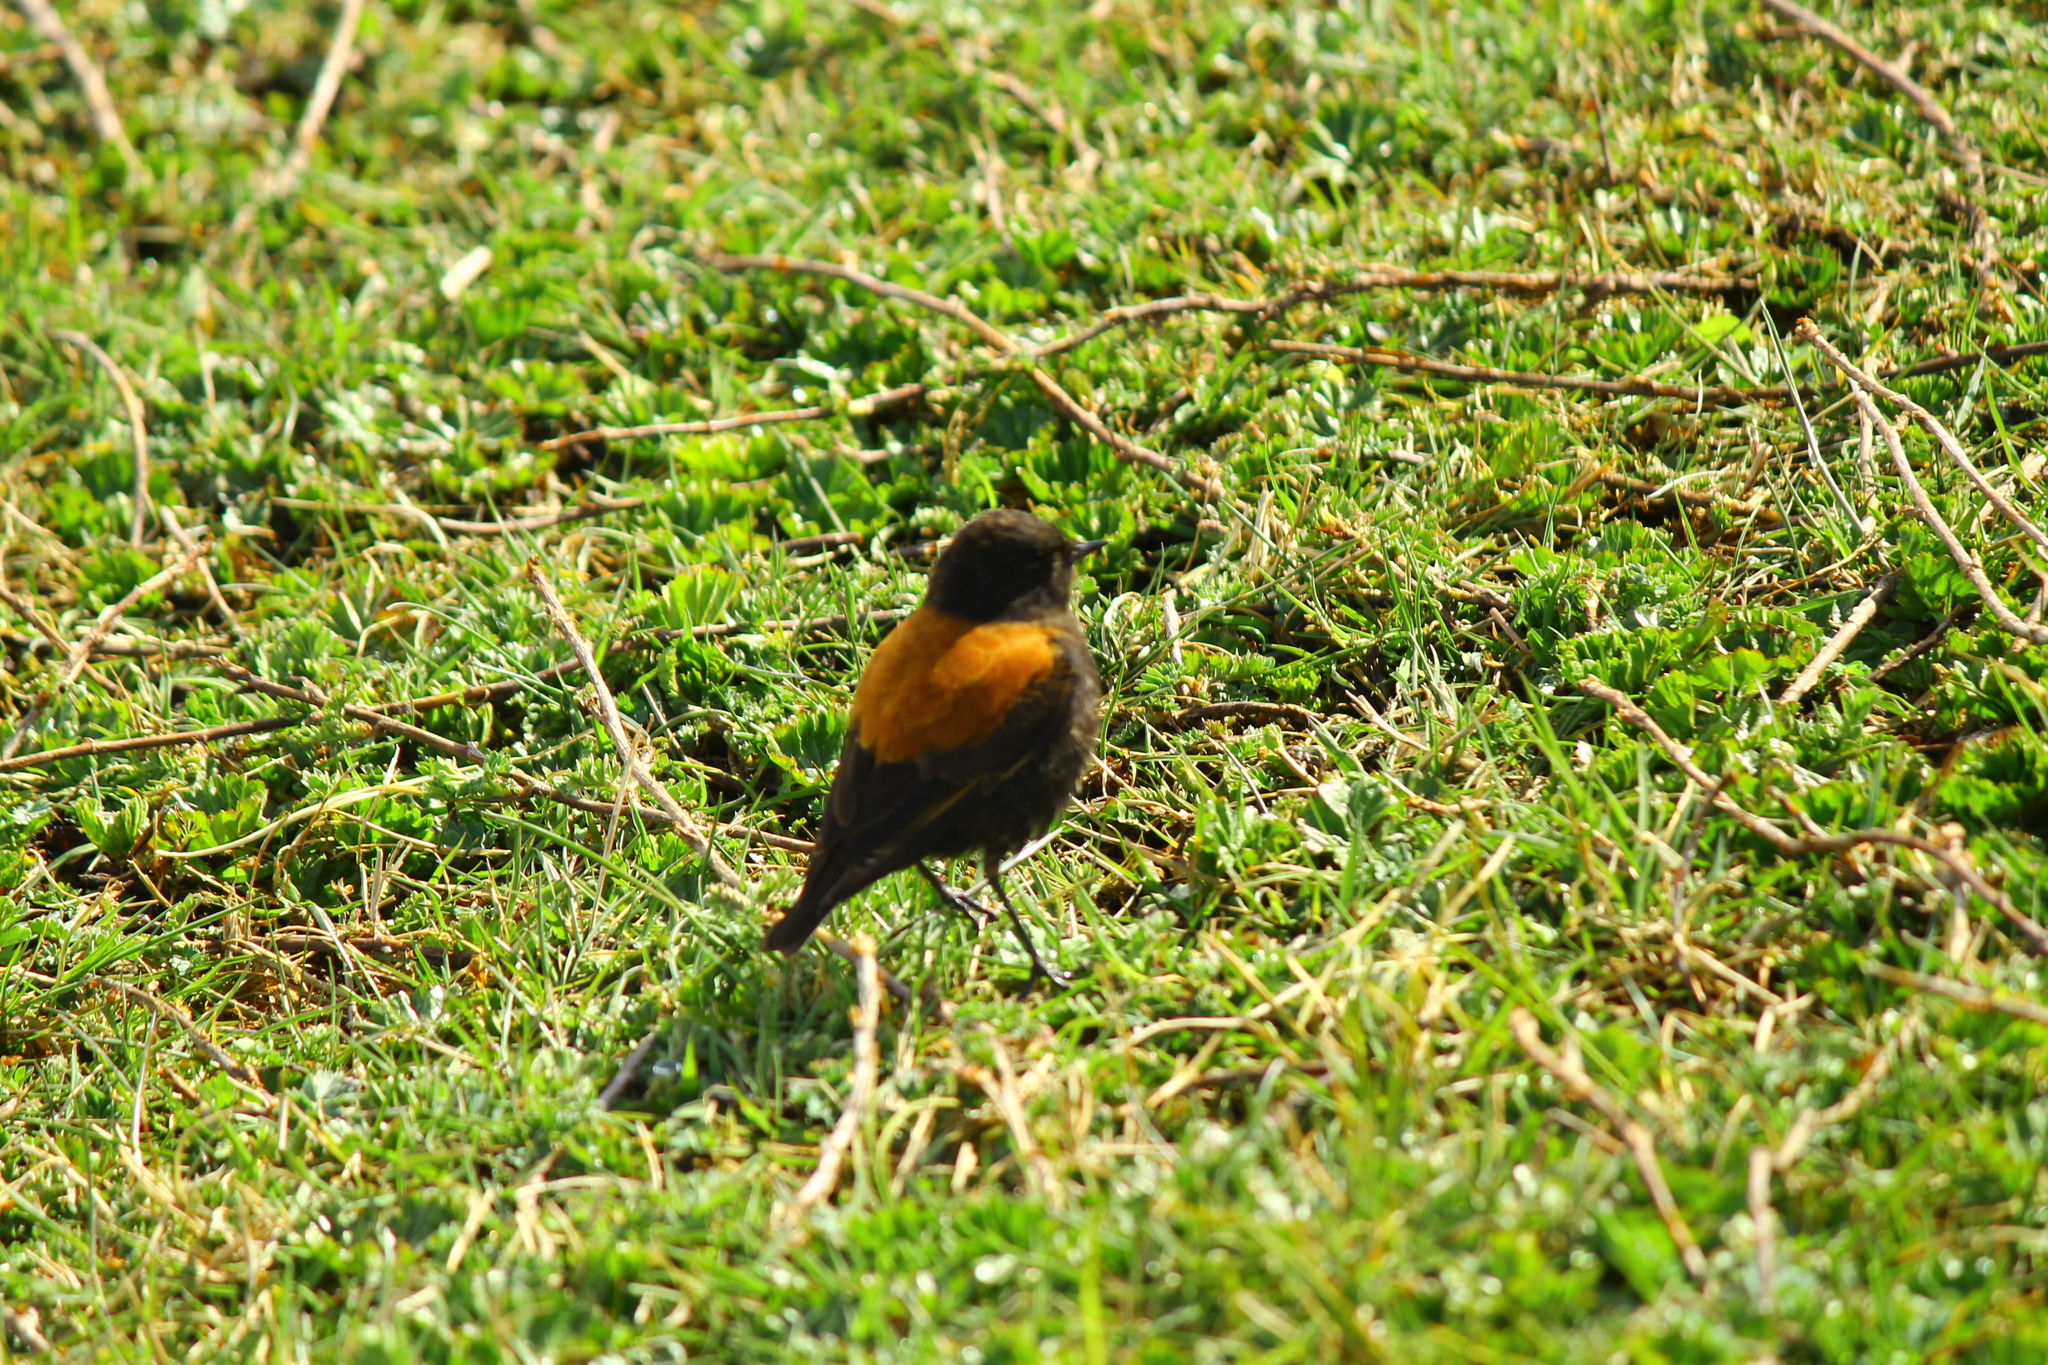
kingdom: Animalia
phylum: Chordata
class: Aves
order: Passeriformes
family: Tyrannidae
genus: Lessonia
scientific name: Lessonia rufa
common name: Austral negrito
